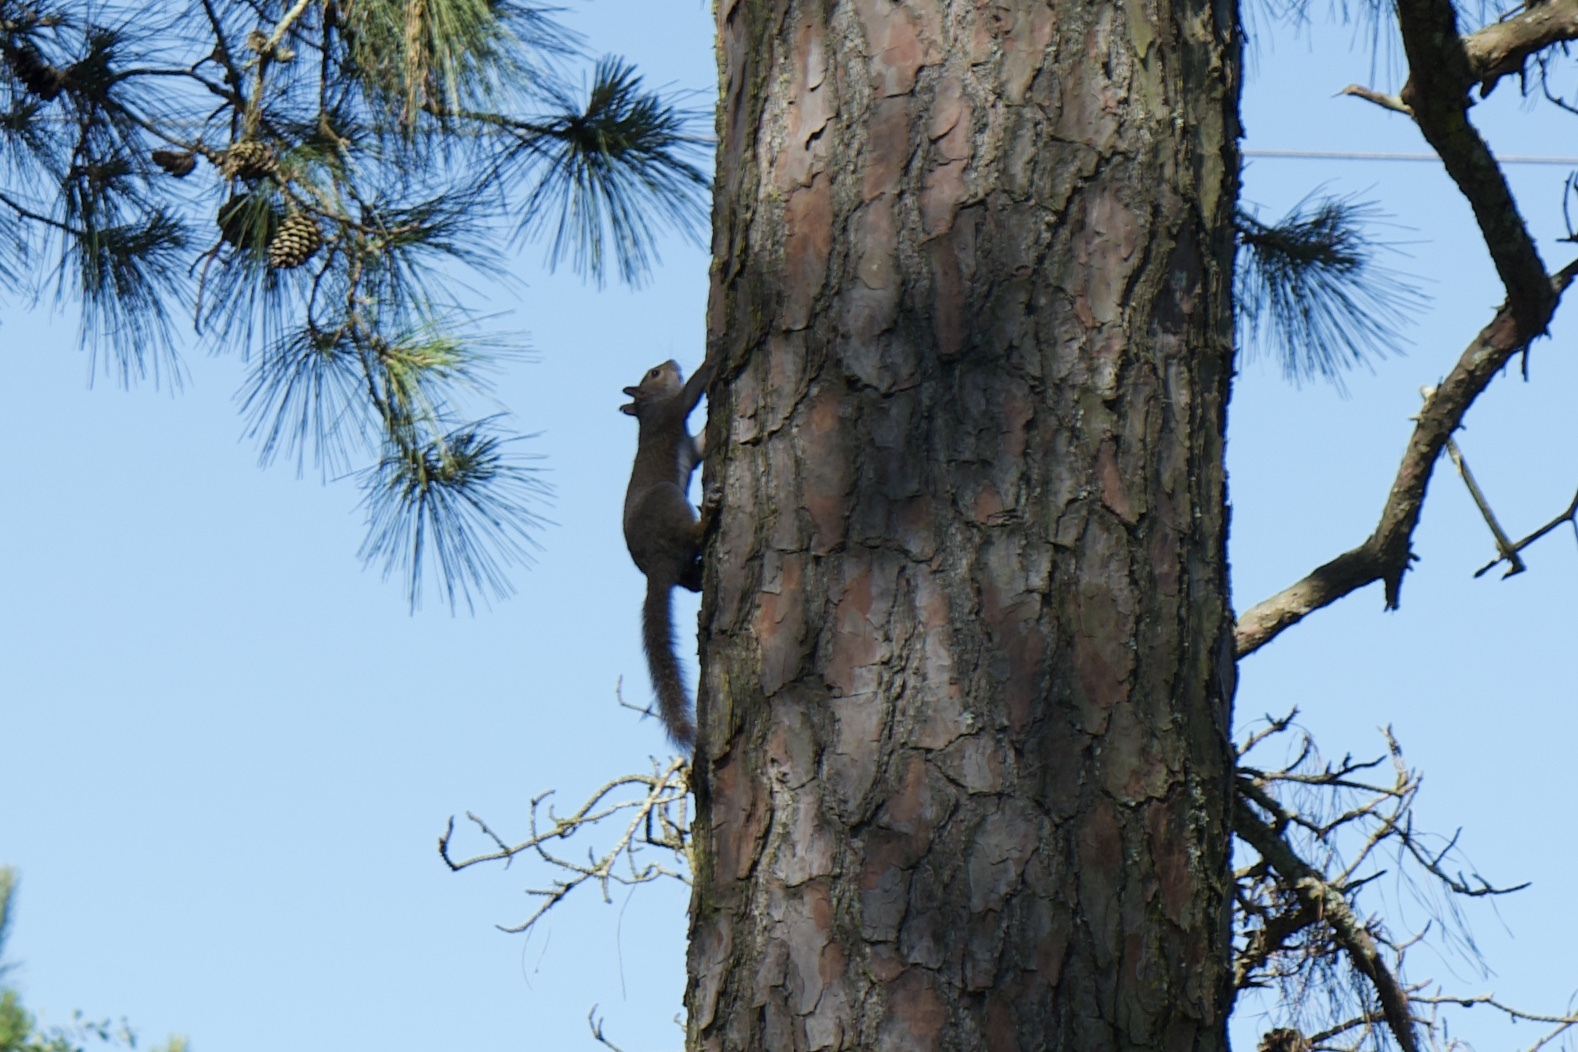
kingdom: Animalia
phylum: Chordata
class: Mammalia
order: Rodentia
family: Sciuridae
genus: Sciurus
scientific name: Sciurus carolinensis
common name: Eastern gray squirrel
